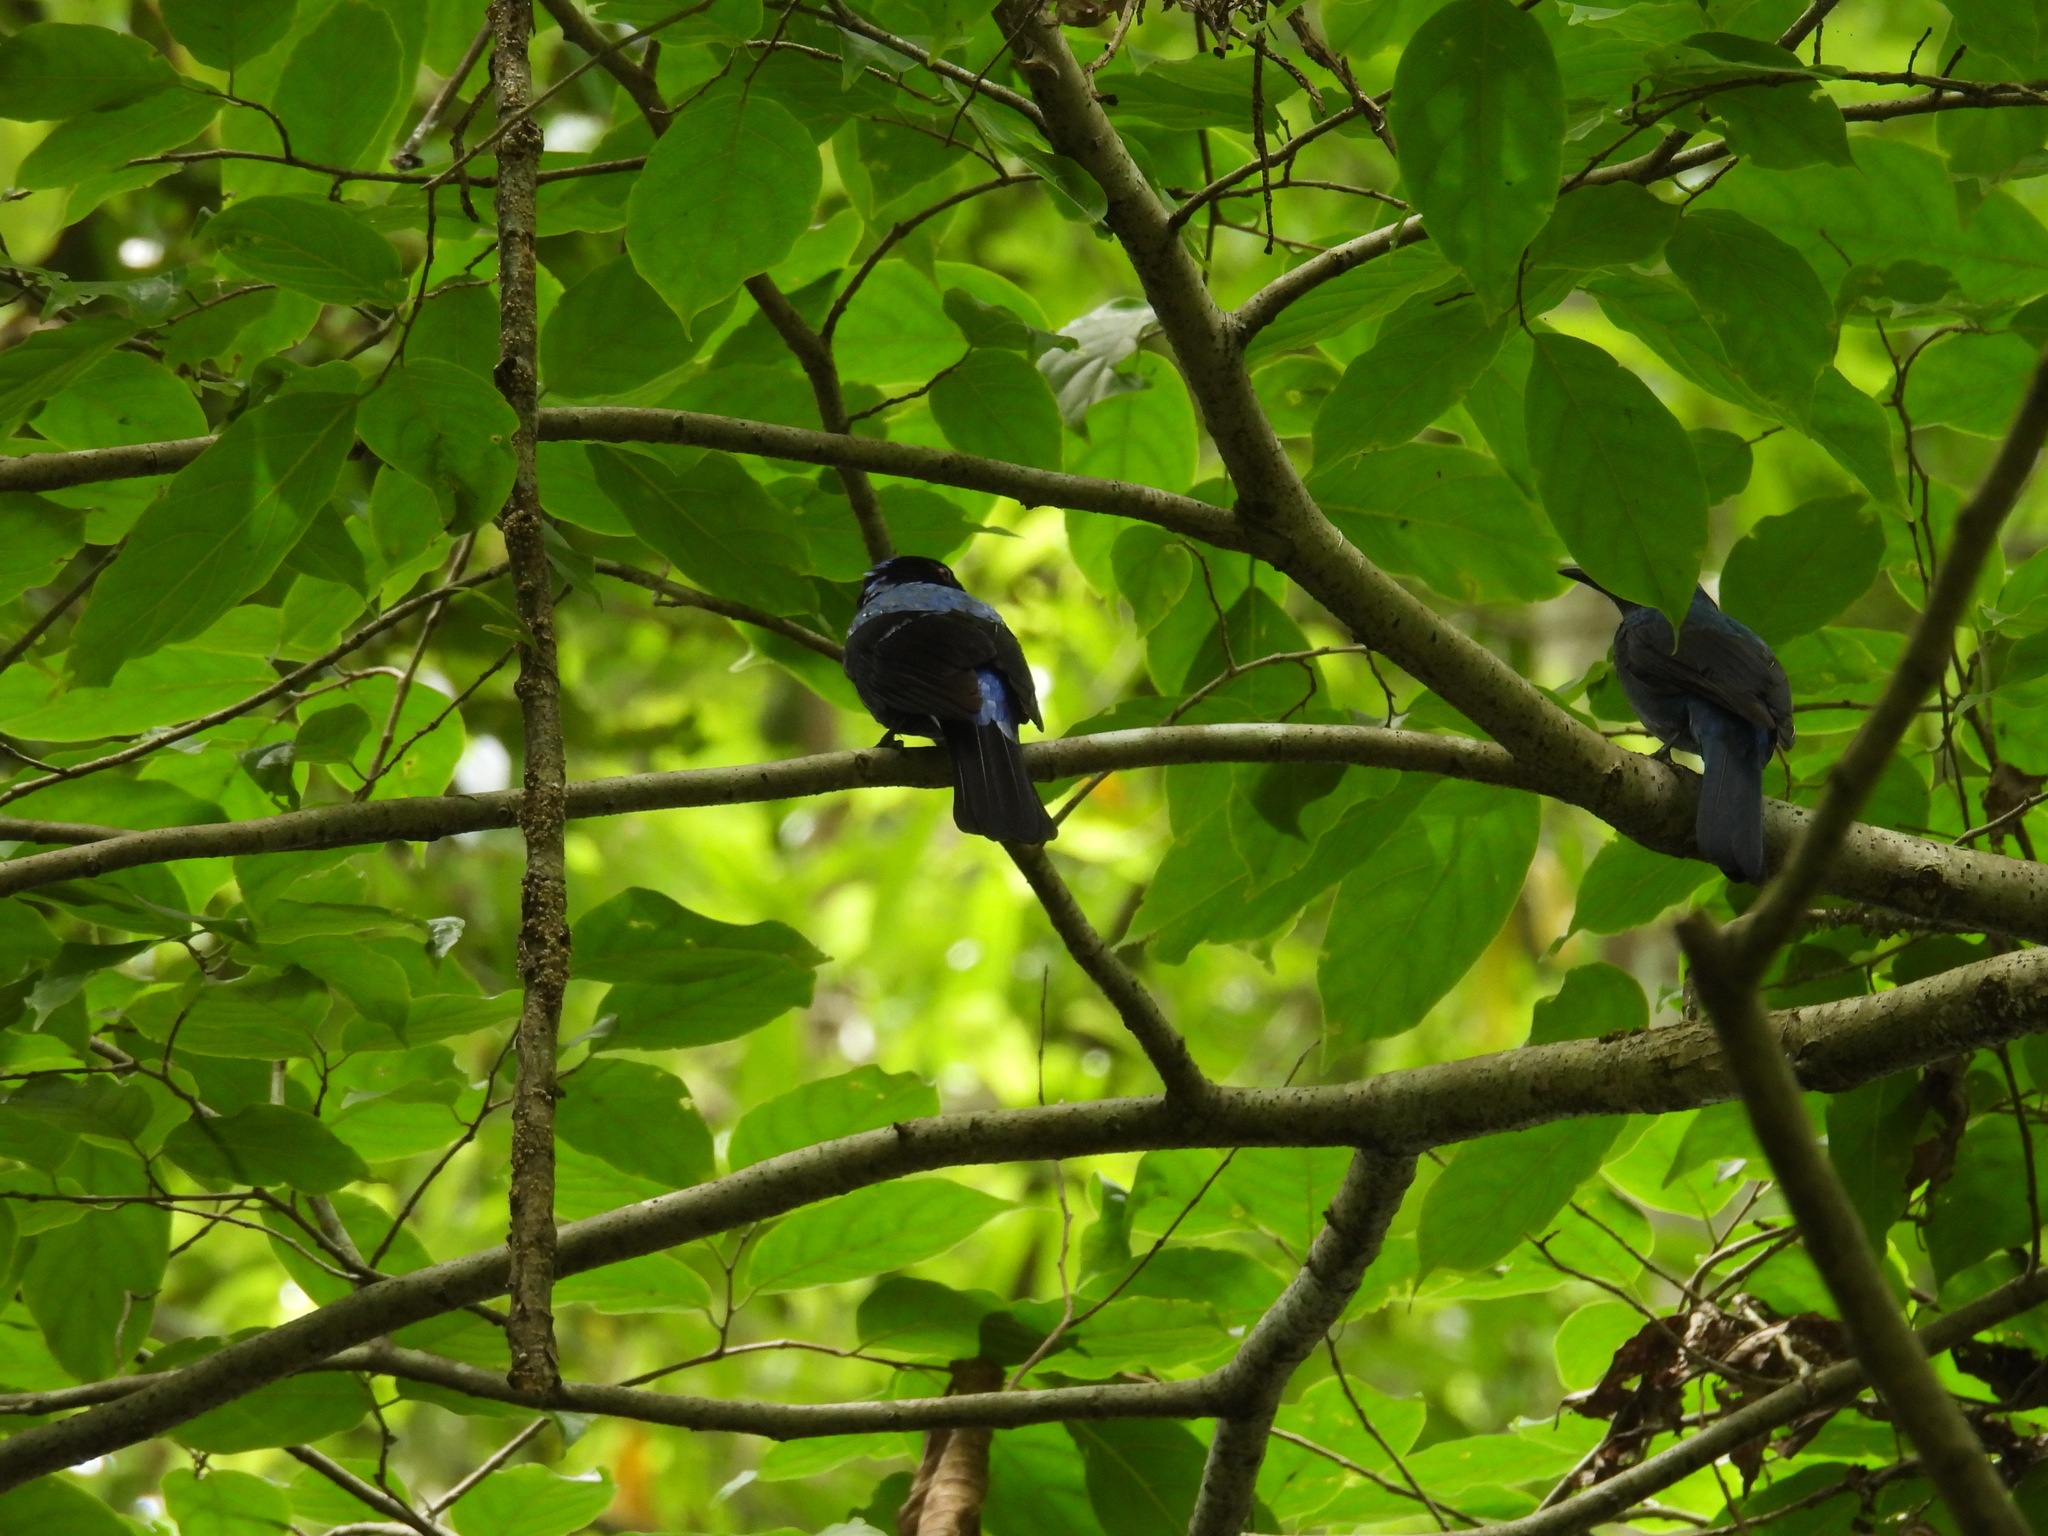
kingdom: Animalia
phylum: Chordata
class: Aves
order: Passeriformes
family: Irenidae
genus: Irena
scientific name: Irena puella
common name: Asian fairy-bluebird
